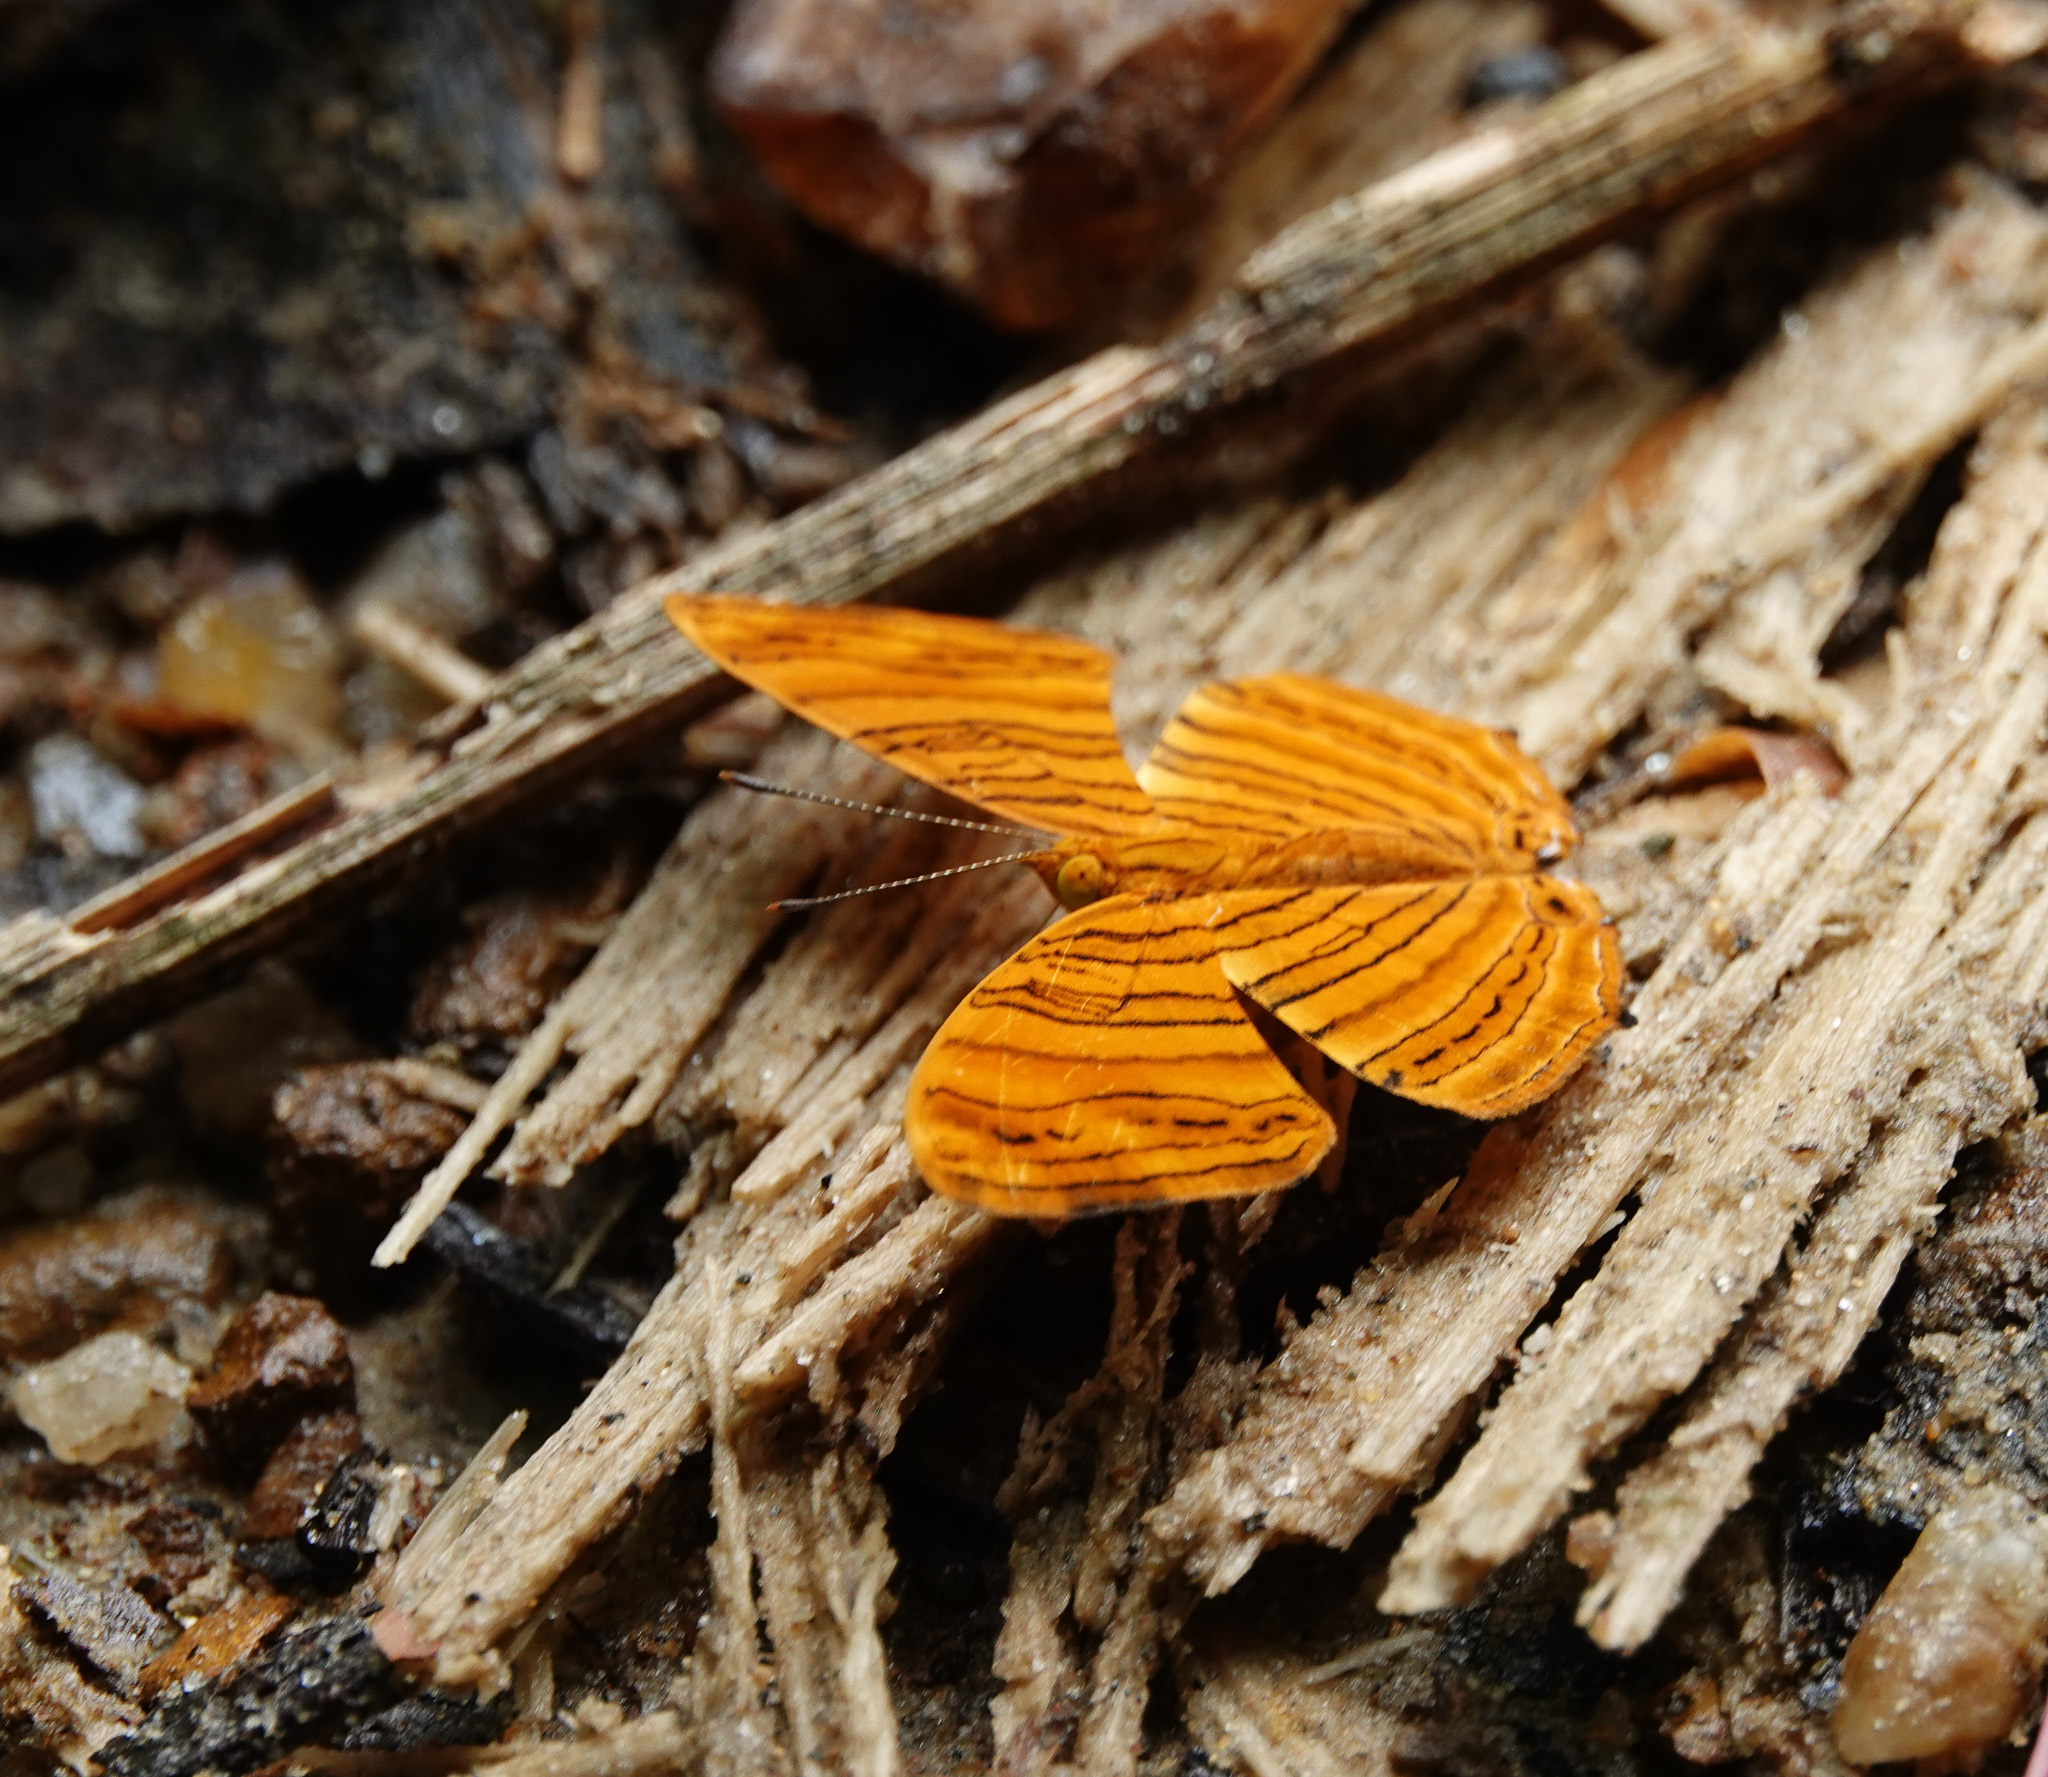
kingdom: Animalia
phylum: Arthropoda
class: Insecta
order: Lepidoptera
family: Nymphalidae
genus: Chersonesia
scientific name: Chersonesia rahria
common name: Wavy maplet
